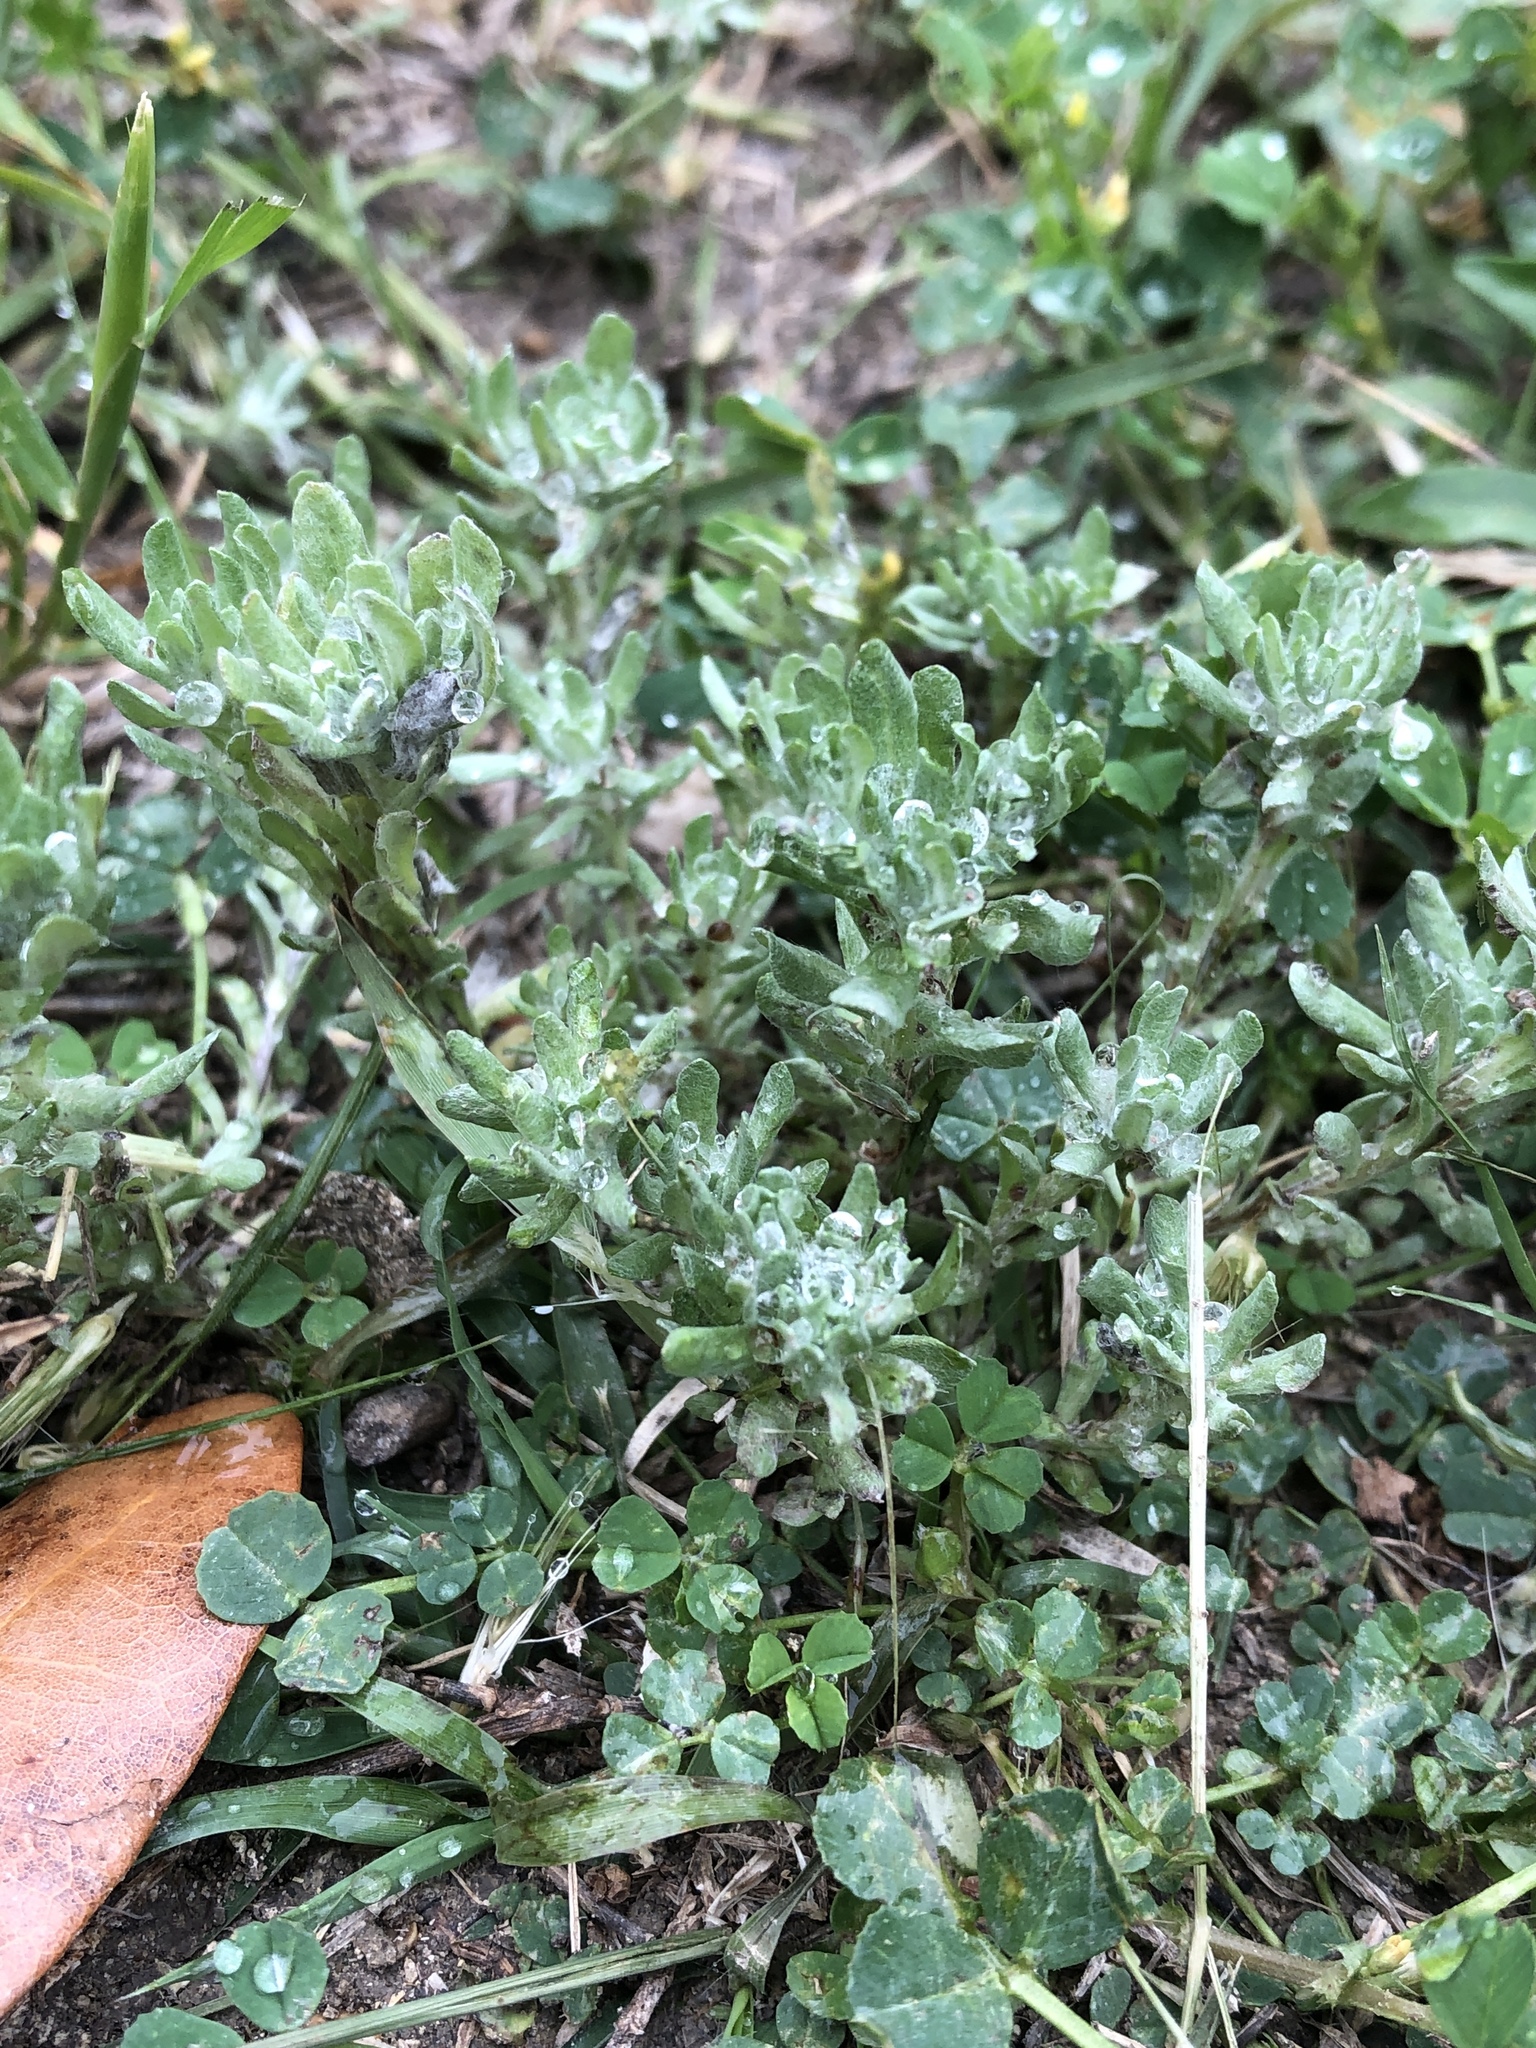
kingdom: Plantae
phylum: Tracheophyta
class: Magnoliopsida
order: Asterales
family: Asteraceae
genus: Diaperia
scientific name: Diaperia prolifera
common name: Big-head rabbit-tobacco
